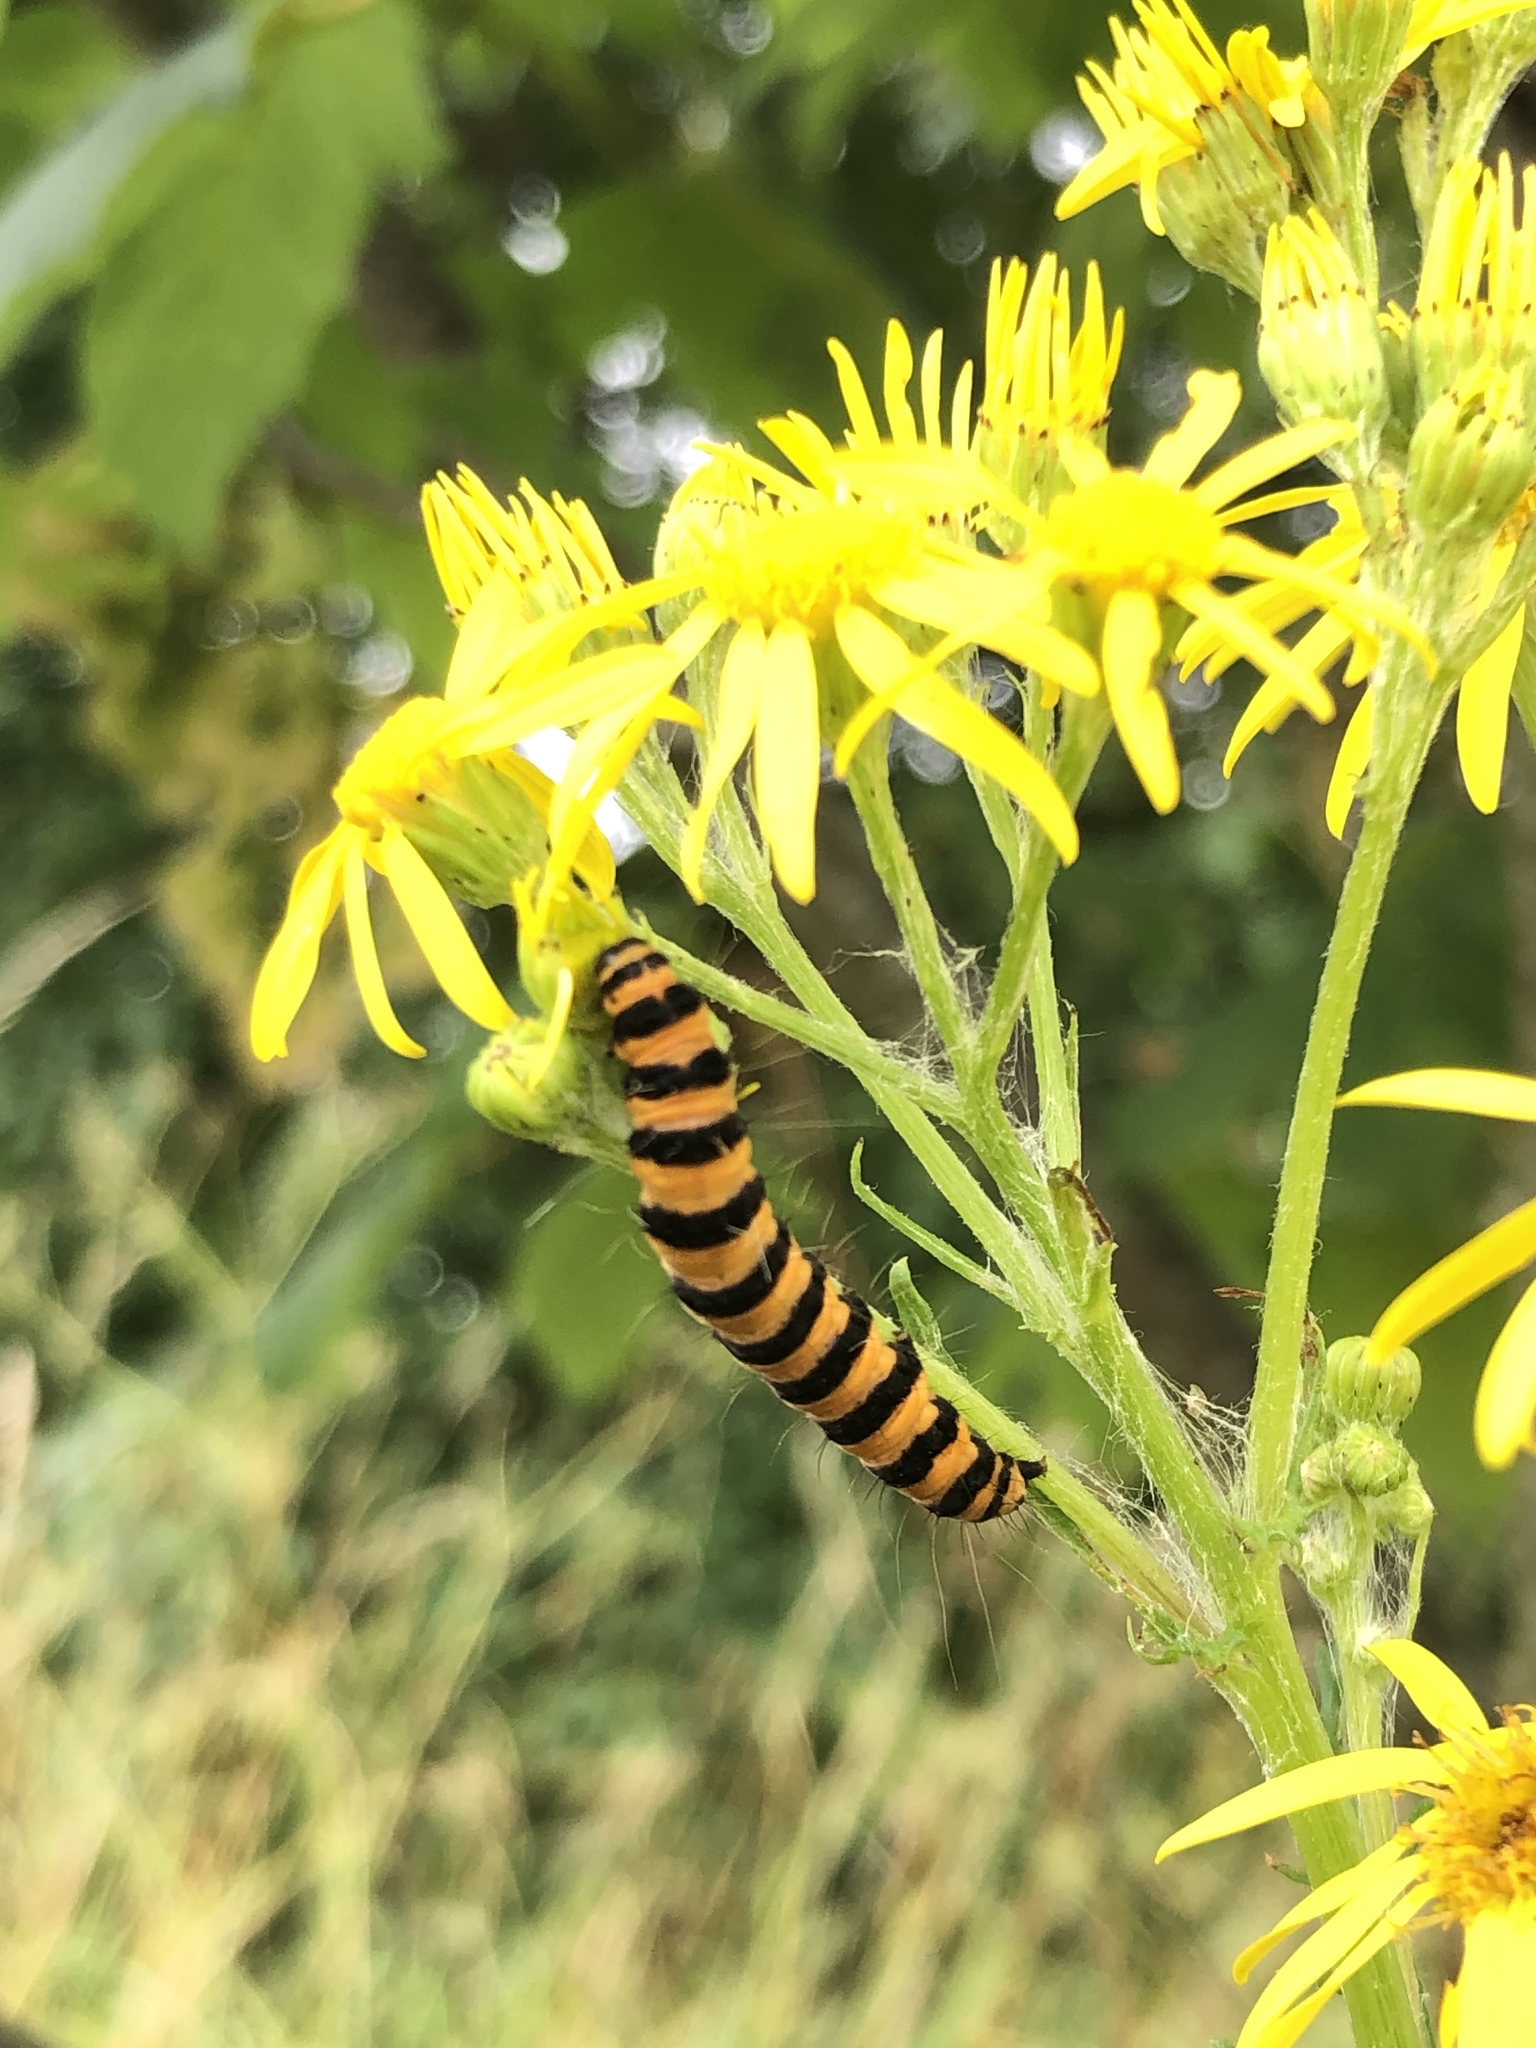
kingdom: Animalia
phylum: Arthropoda
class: Insecta
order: Lepidoptera
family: Erebidae
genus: Tyria
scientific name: Tyria jacobaeae
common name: Cinnabar
